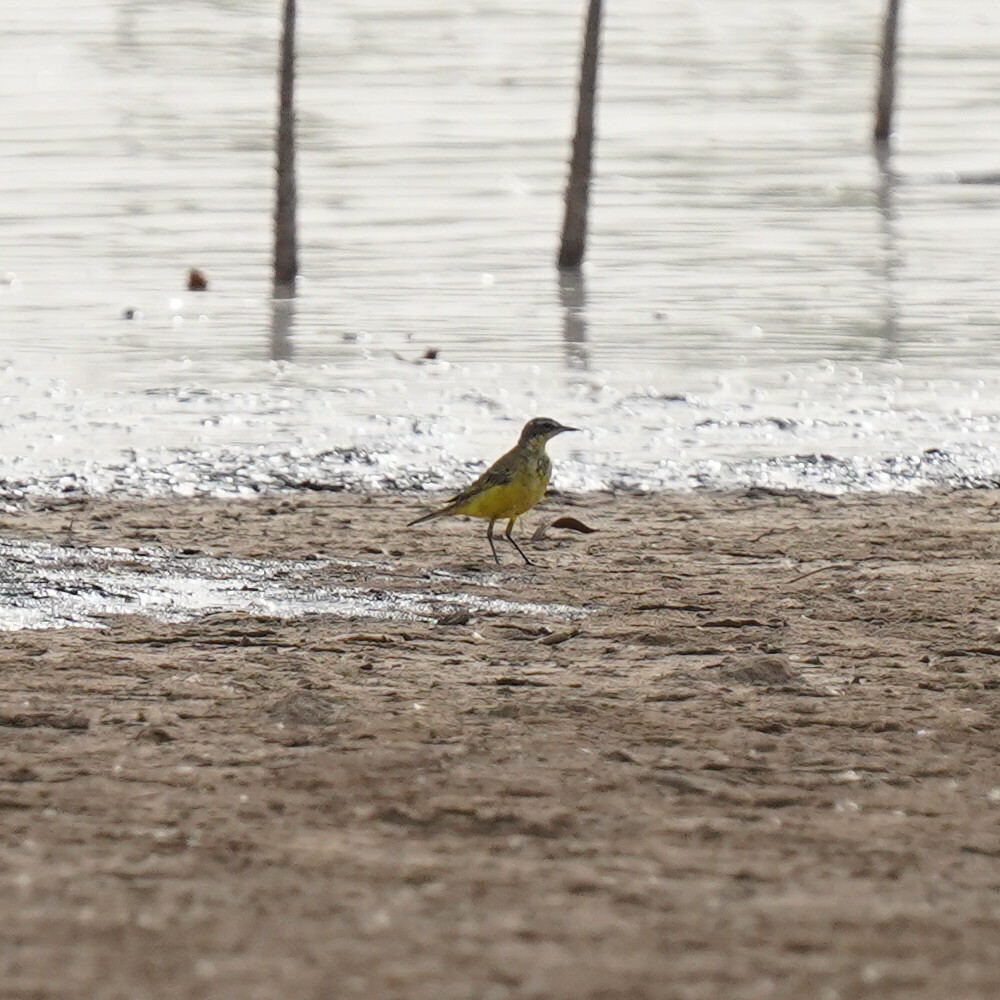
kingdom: Animalia
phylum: Chordata
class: Aves
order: Passeriformes
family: Motacillidae
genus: Motacilla
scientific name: Motacilla flava
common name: Western yellow wagtail
